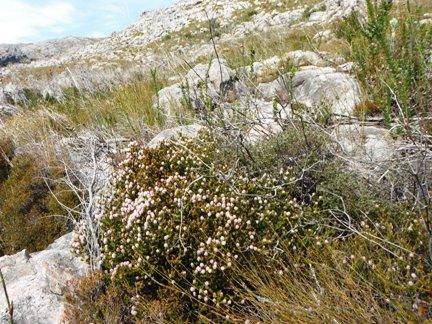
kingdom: Plantae
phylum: Tracheophyta
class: Magnoliopsida
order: Lamiales
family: Stilbaceae
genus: Stilbe
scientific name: Stilbe ericoides
